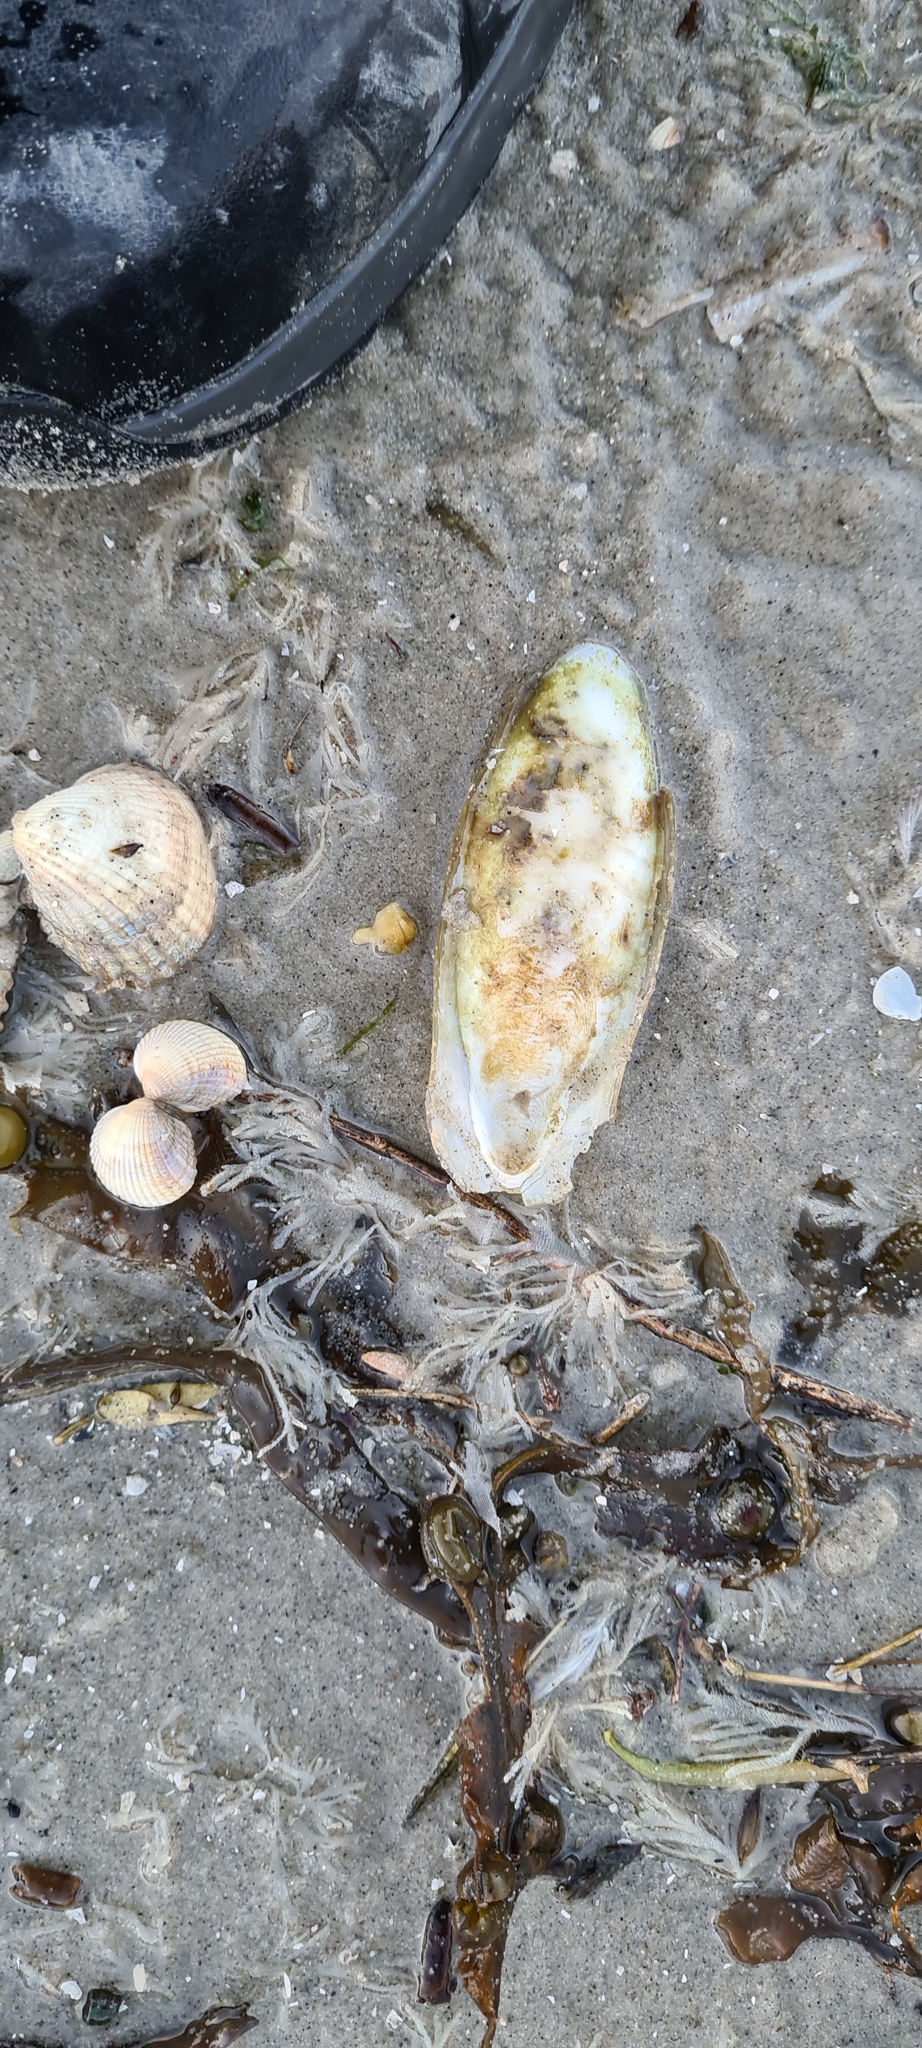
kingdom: Animalia
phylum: Mollusca
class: Cephalopoda
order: Sepiida
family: Sepiidae
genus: Sepia
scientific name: Sepia officinalis
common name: Common cuttlefish
